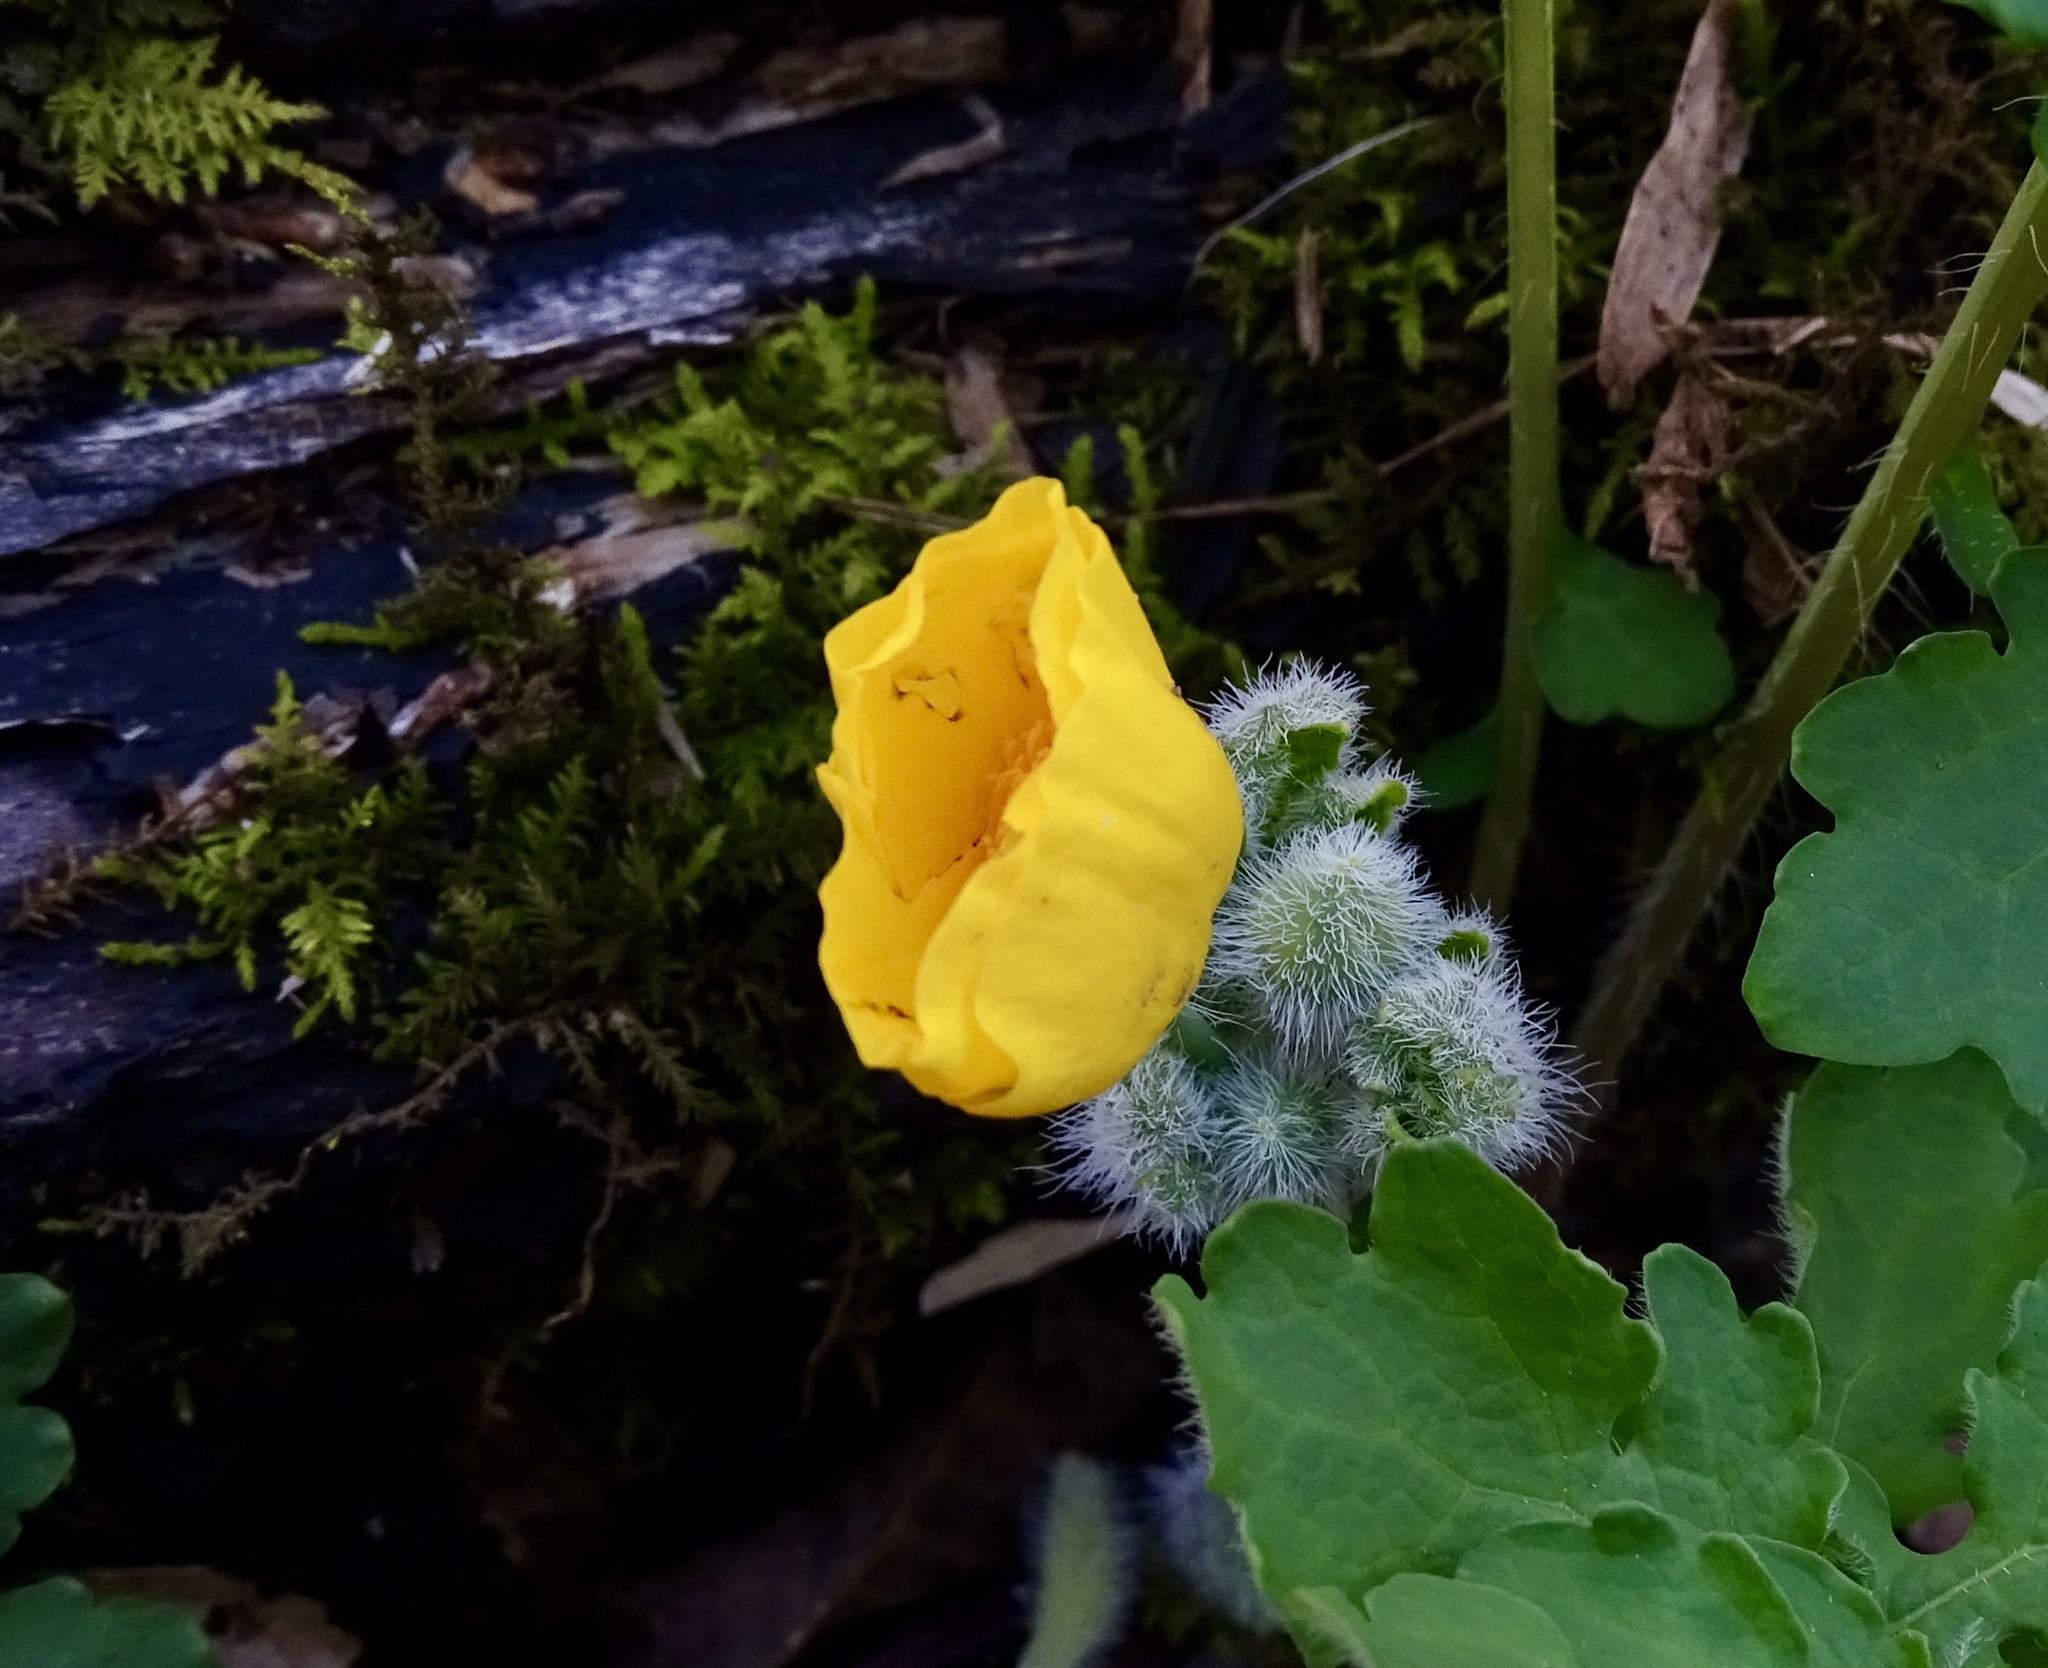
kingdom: Plantae
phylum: Tracheophyta
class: Magnoliopsida
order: Ranunculales
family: Papaveraceae
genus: Stylophorum
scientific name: Stylophorum diphyllum
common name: Celandine poppy
